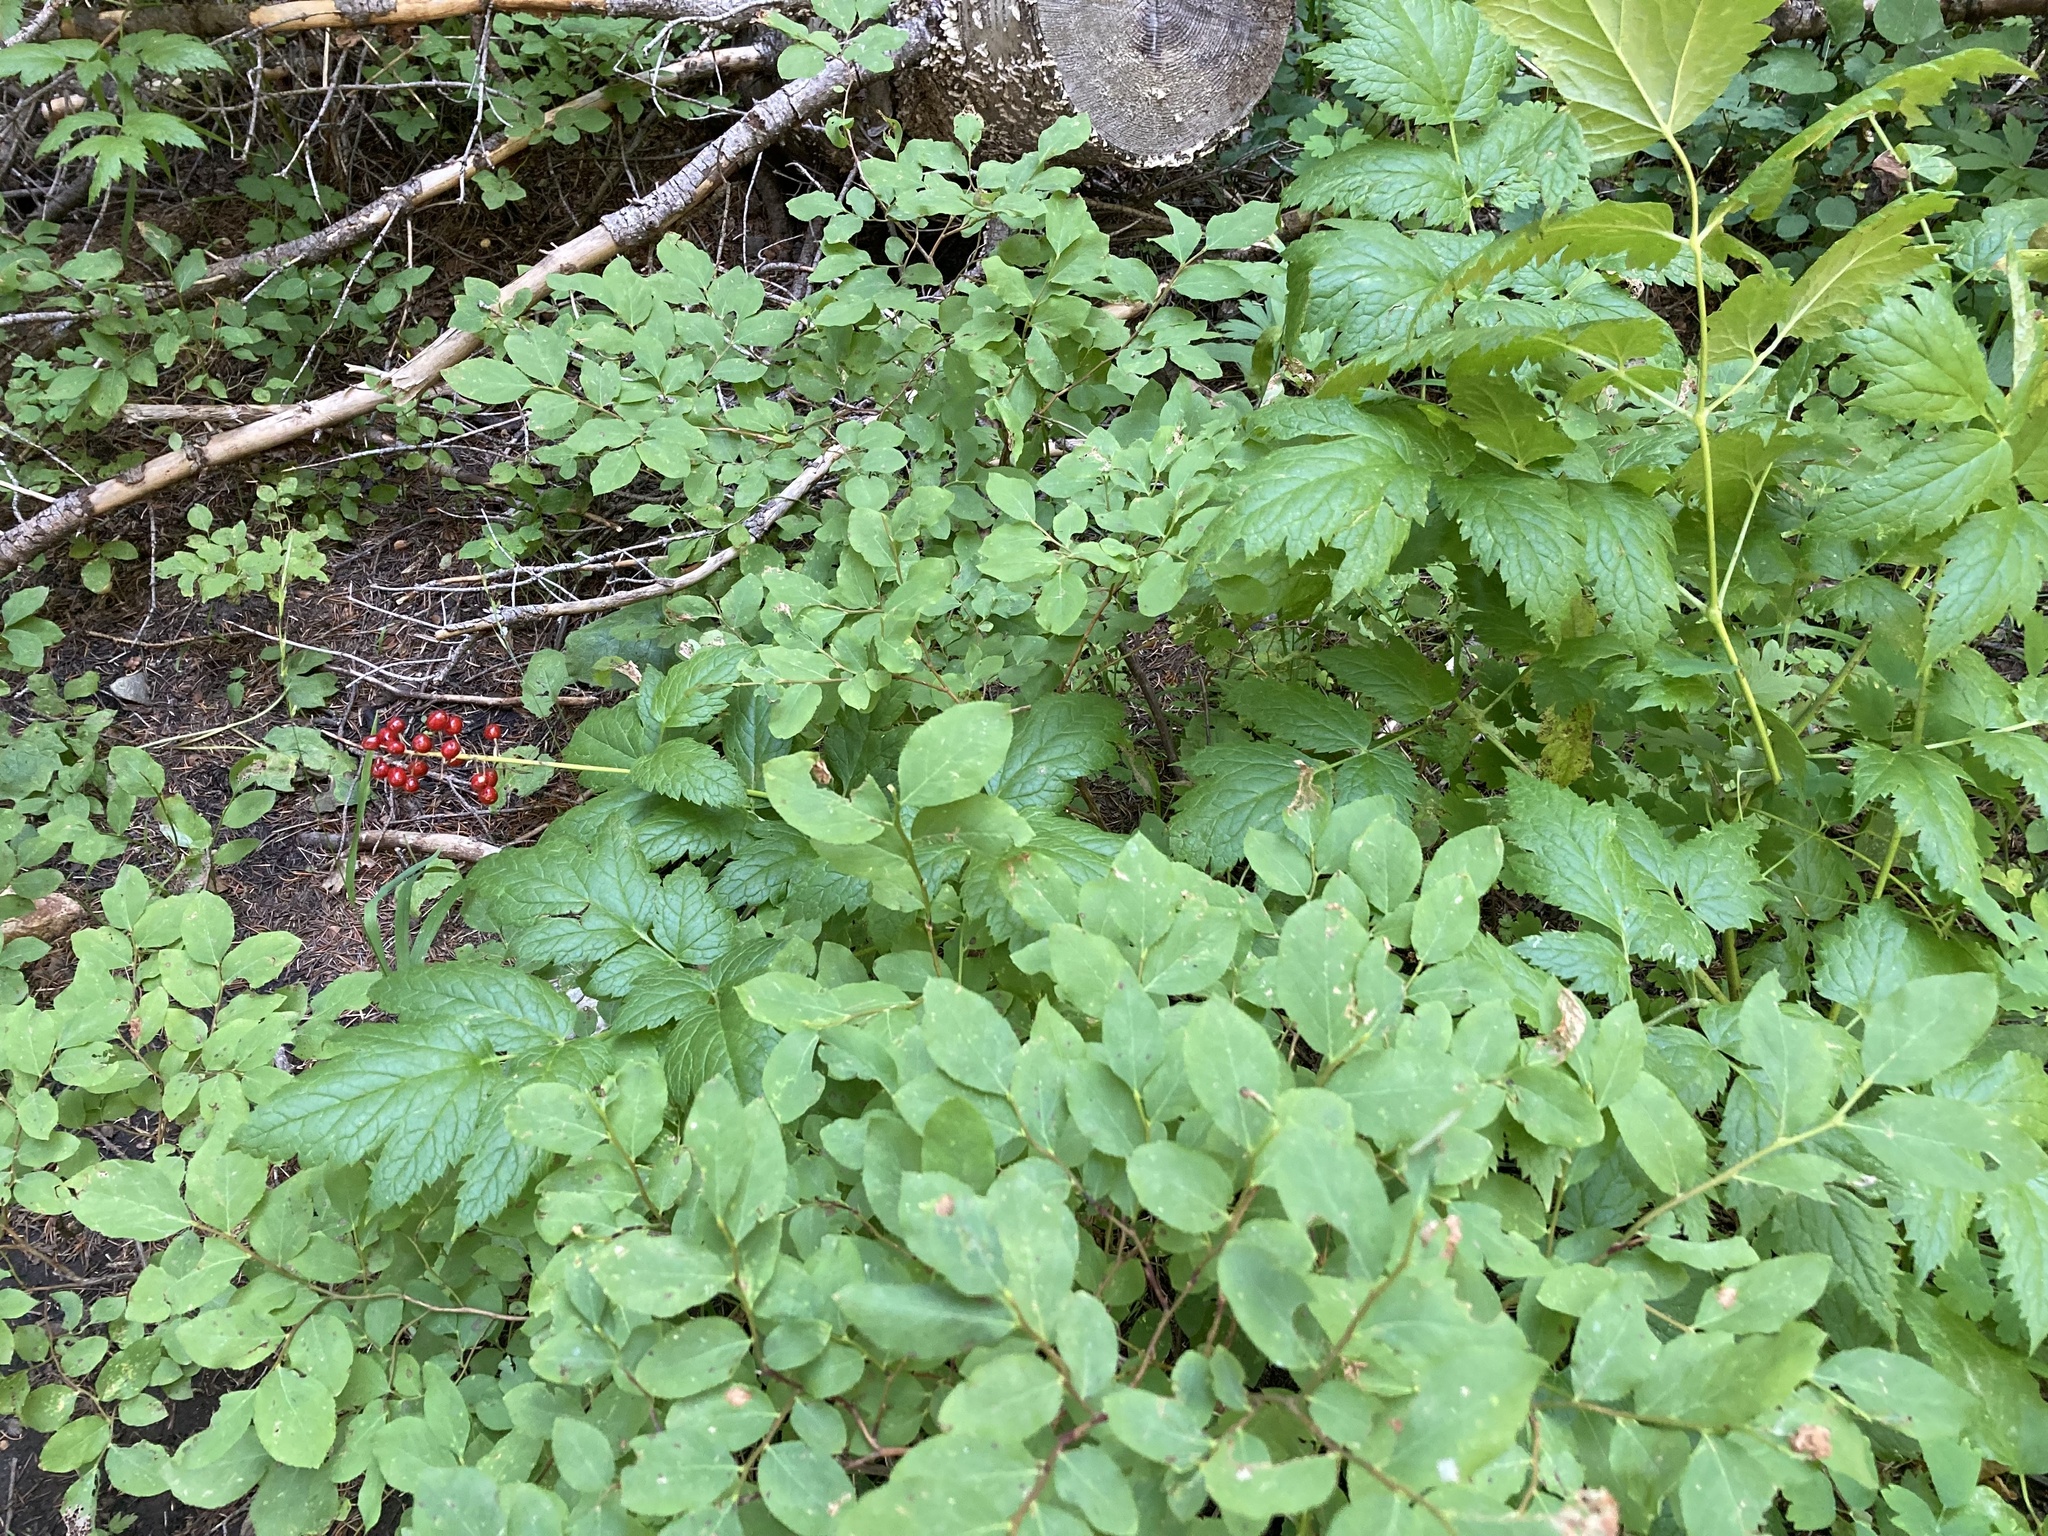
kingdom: Plantae
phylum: Tracheophyta
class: Magnoliopsida
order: Ranunculales
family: Ranunculaceae
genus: Actaea
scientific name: Actaea rubra
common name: Red baneberry
